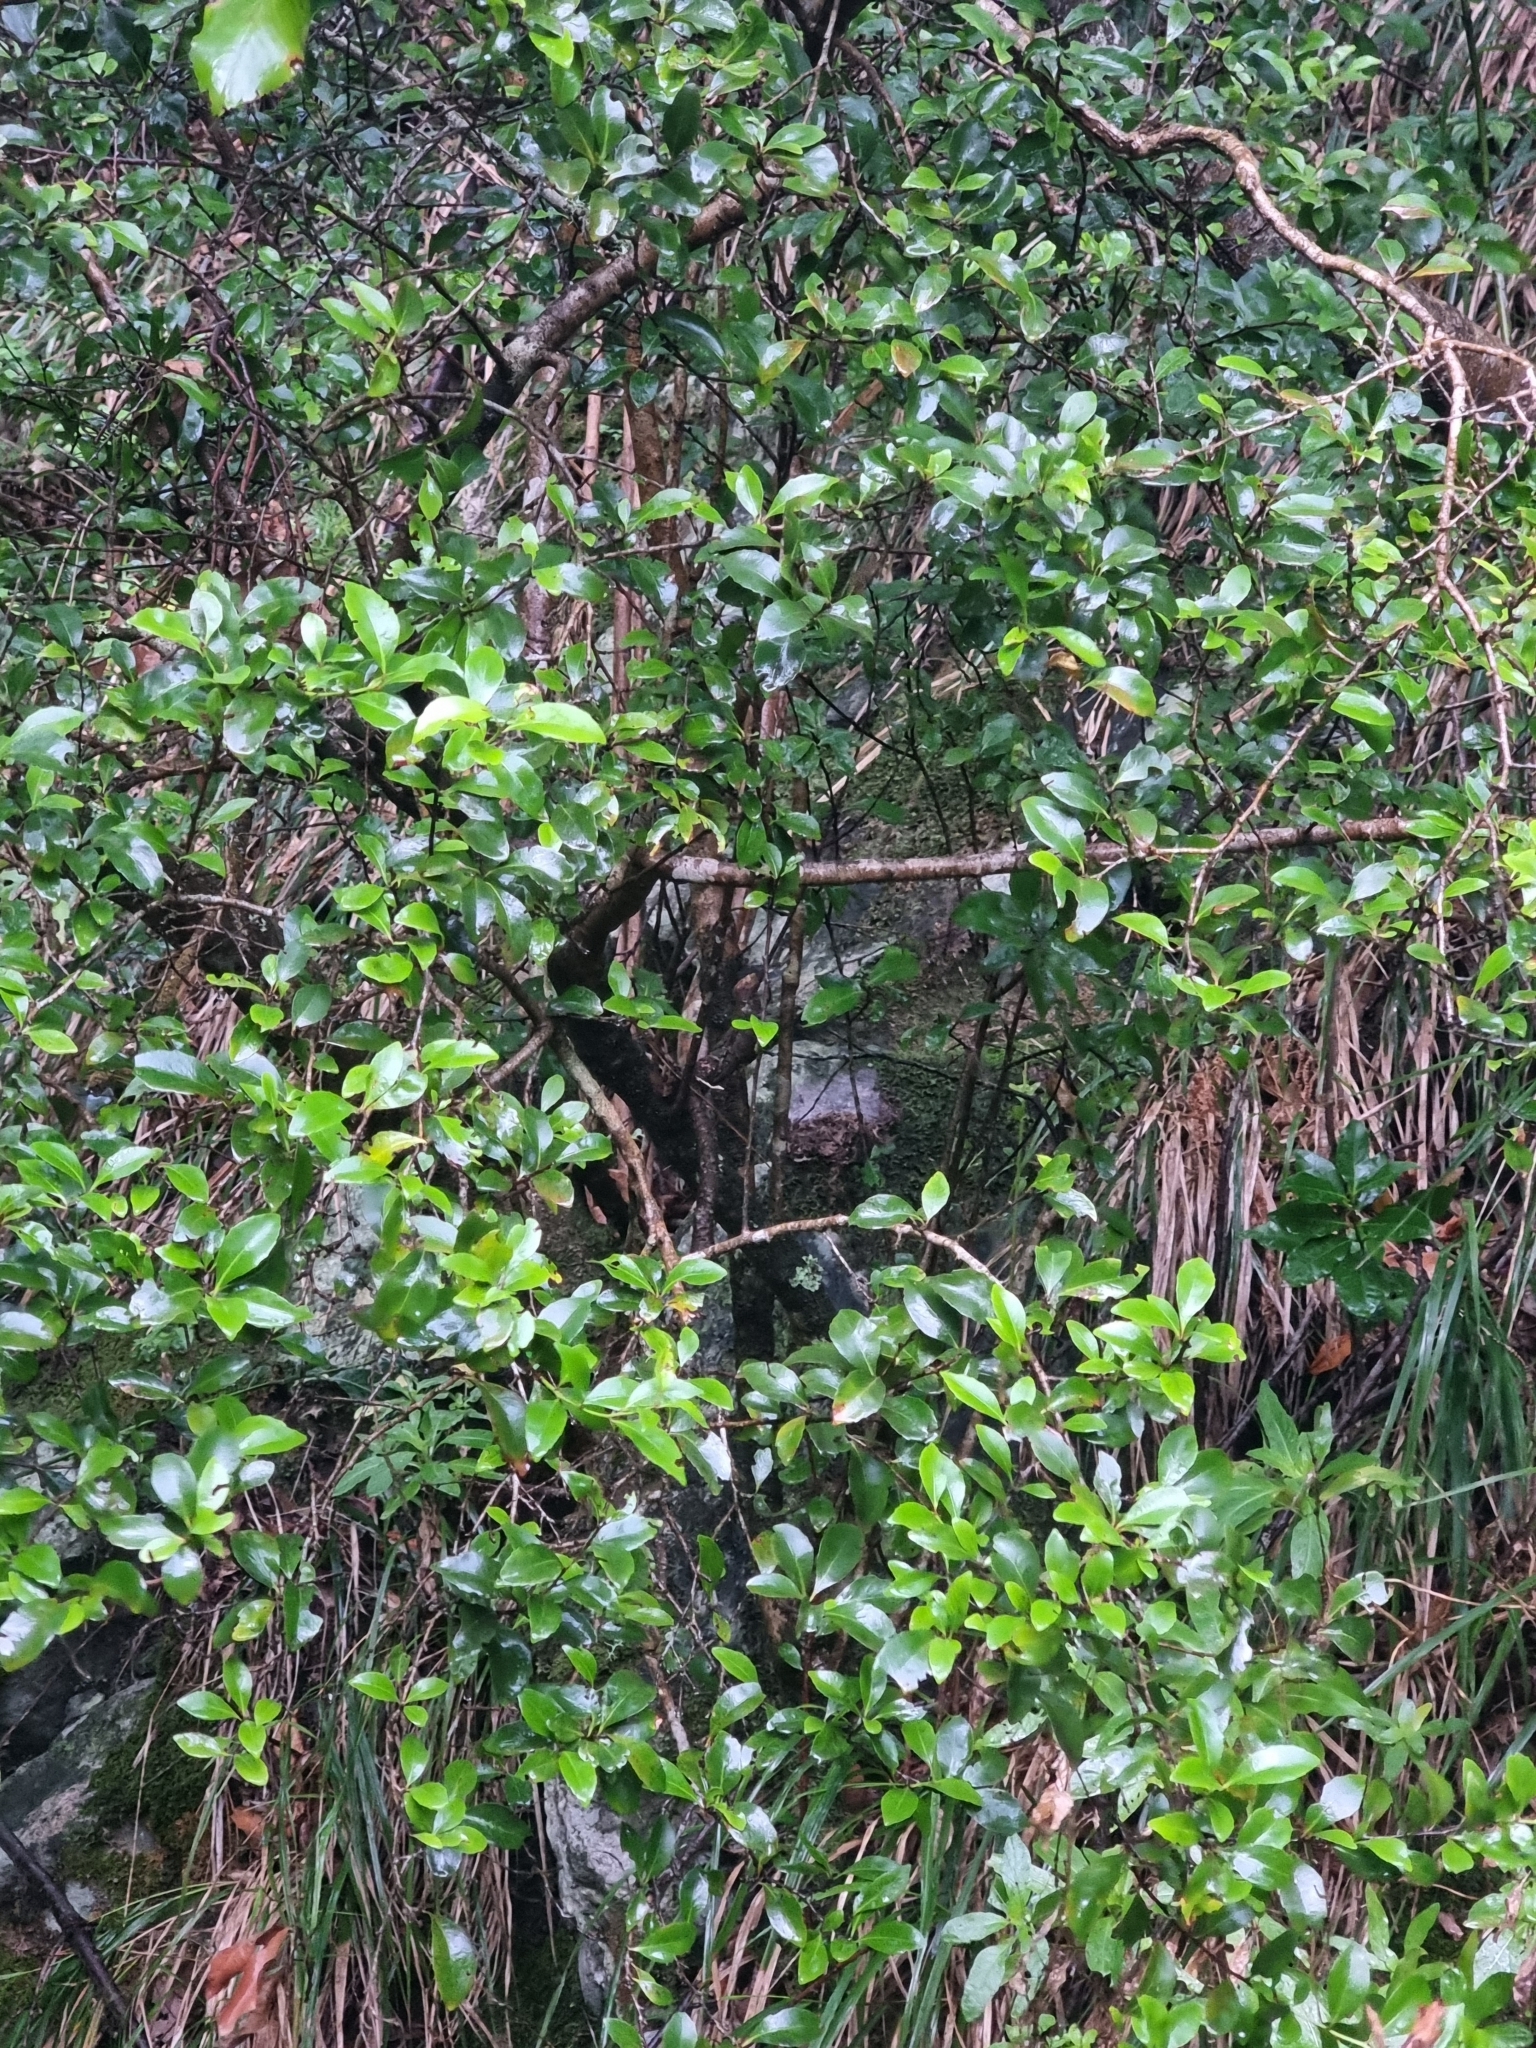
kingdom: Plantae
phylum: Tracheophyta
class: Magnoliopsida
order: Celastrales
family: Celastraceae
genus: Gymnosporia
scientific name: Gymnosporia dryandri
